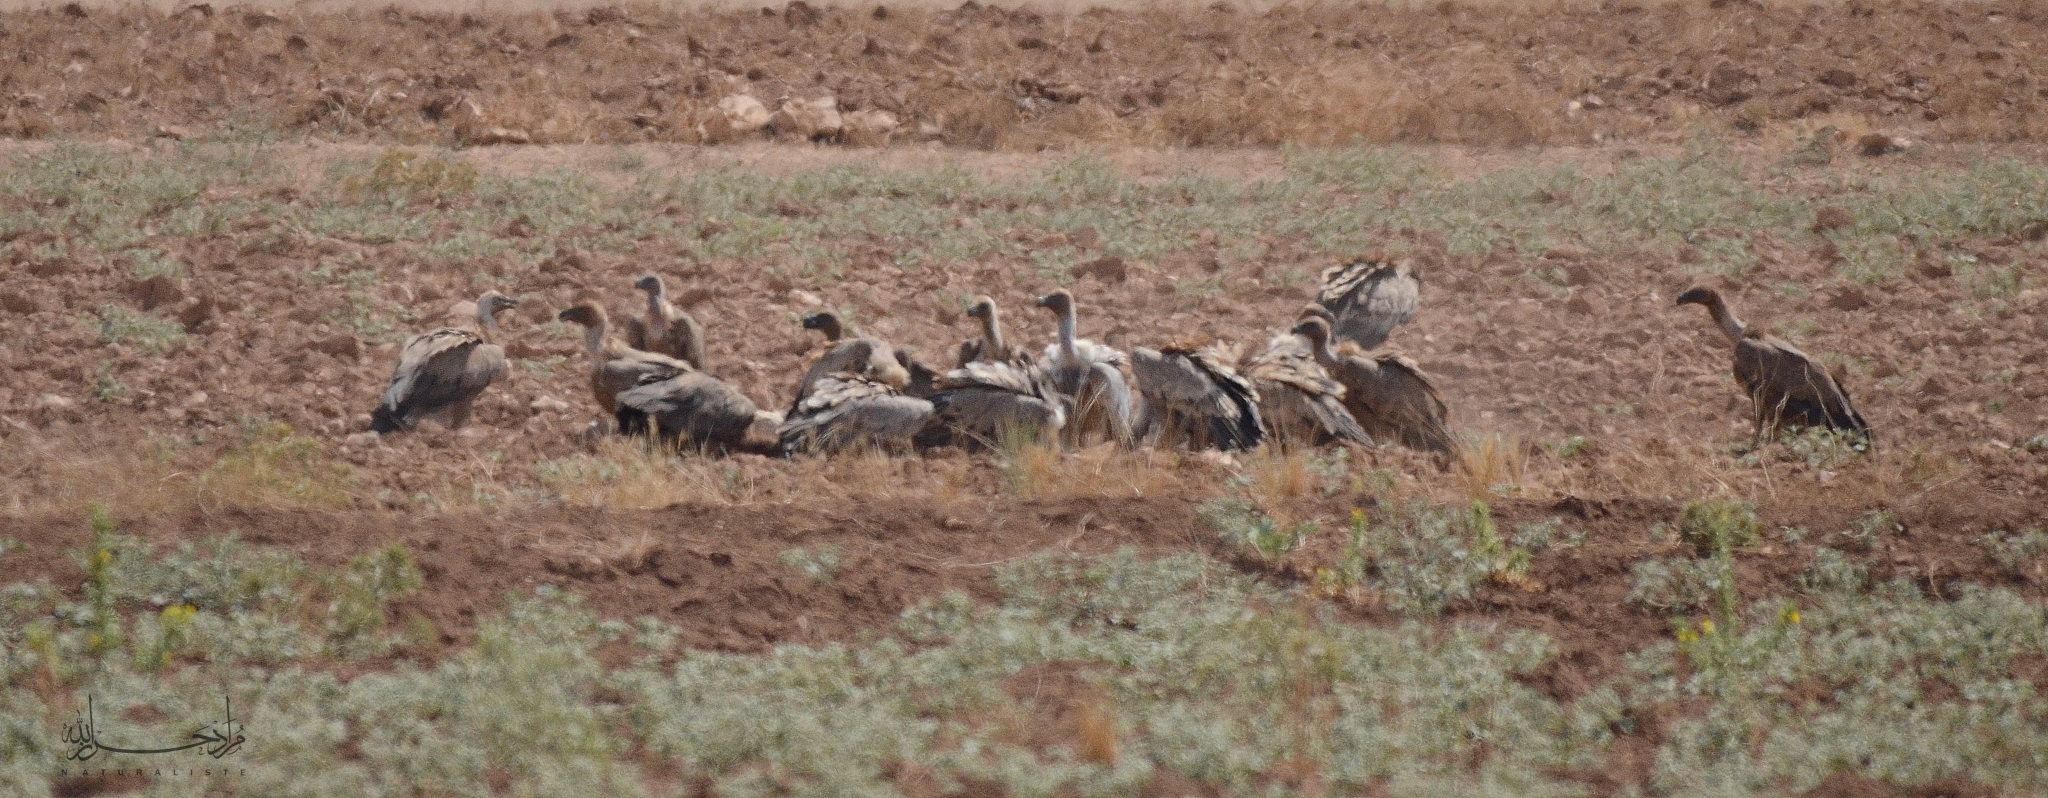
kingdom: Animalia
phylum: Chordata
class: Aves
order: Accipitriformes
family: Accipitridae
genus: Gyps
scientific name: Gyps fulvus
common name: Griffon vulture
